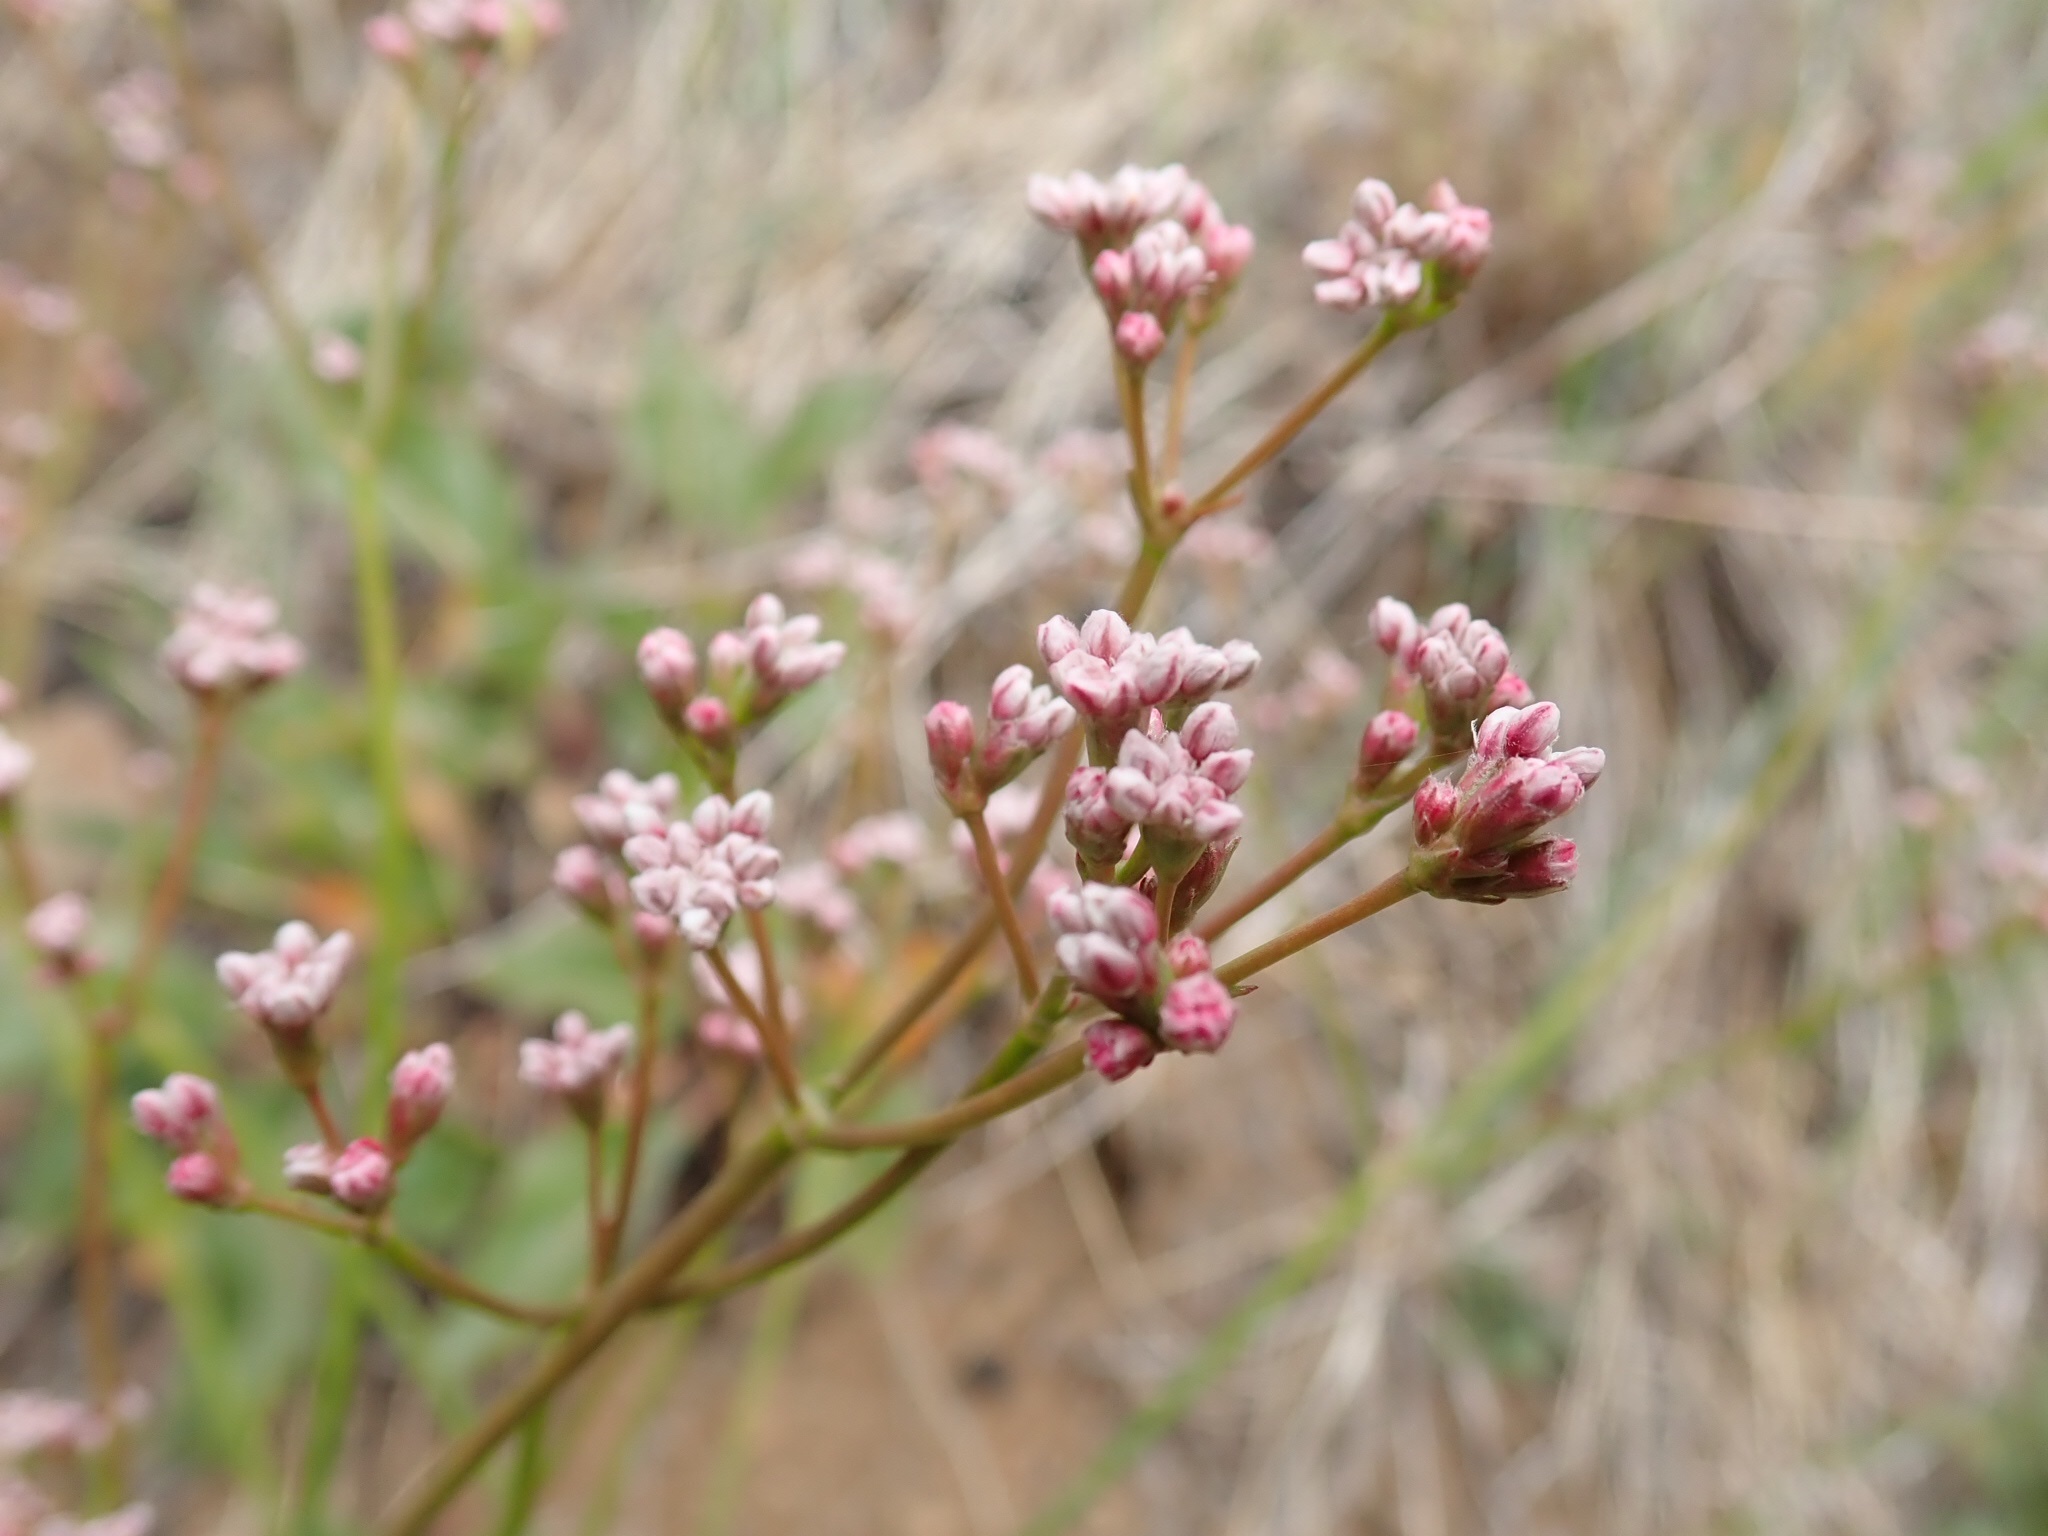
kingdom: Plantae
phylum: Tracheophyta
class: Magnoliopsida
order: Caryophyllales
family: Polygonaceae
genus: Eriogonum
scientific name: Eriogonum elatum
